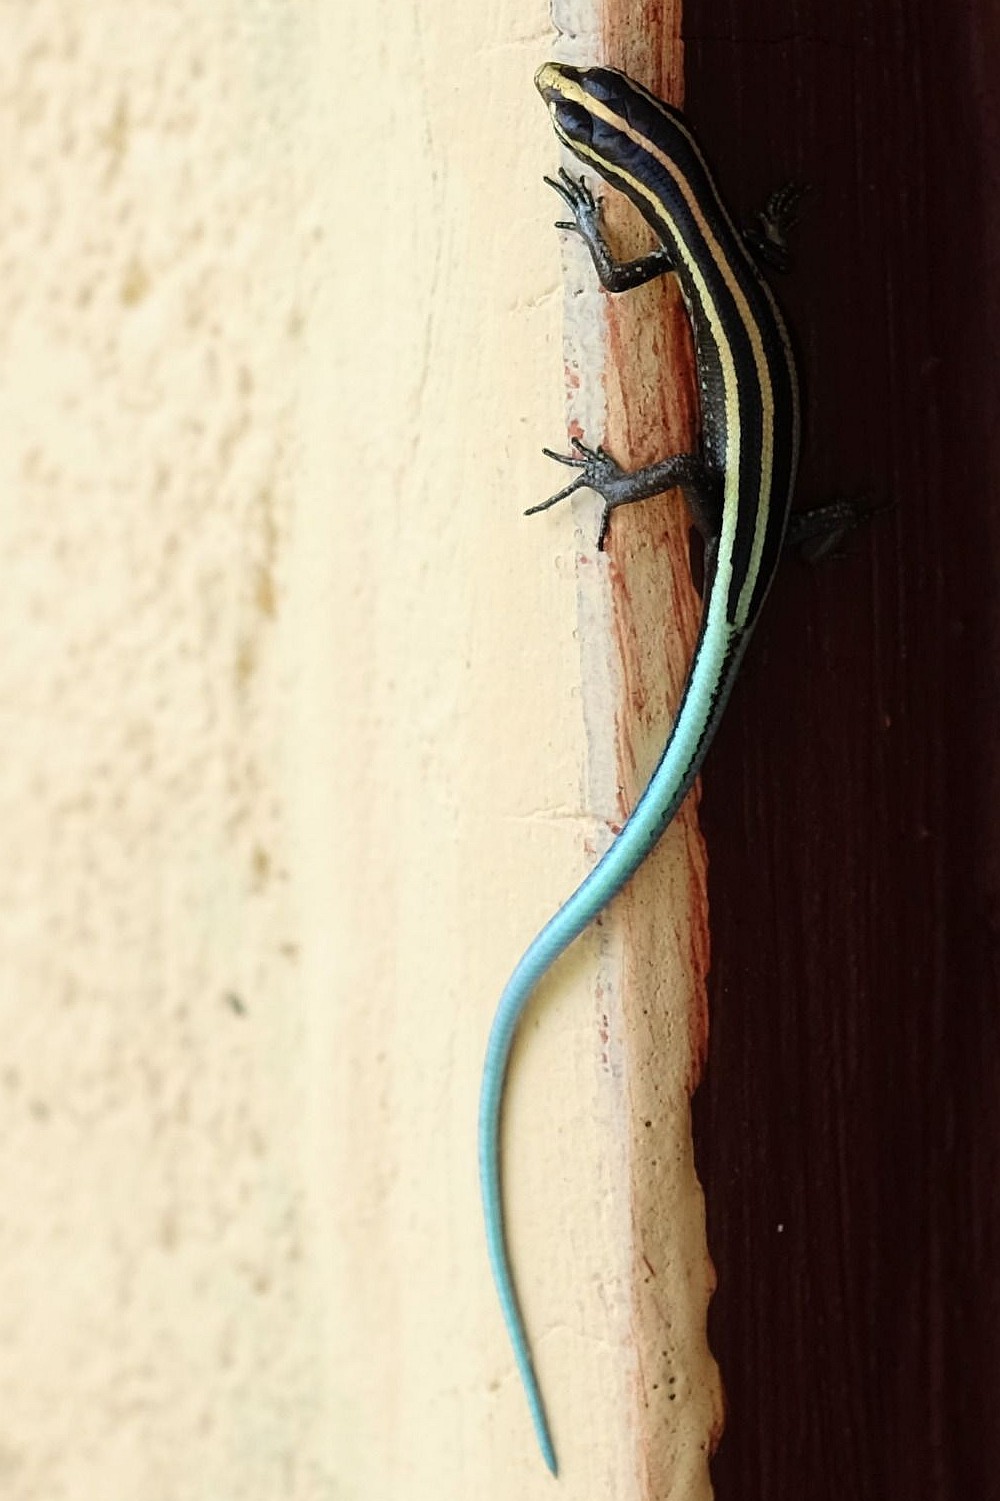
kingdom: Animalia
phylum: Chordata
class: Squamata
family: Scincidae
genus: Emoia
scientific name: Emoia caeruleocauda
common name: Pacific bluetail skink
